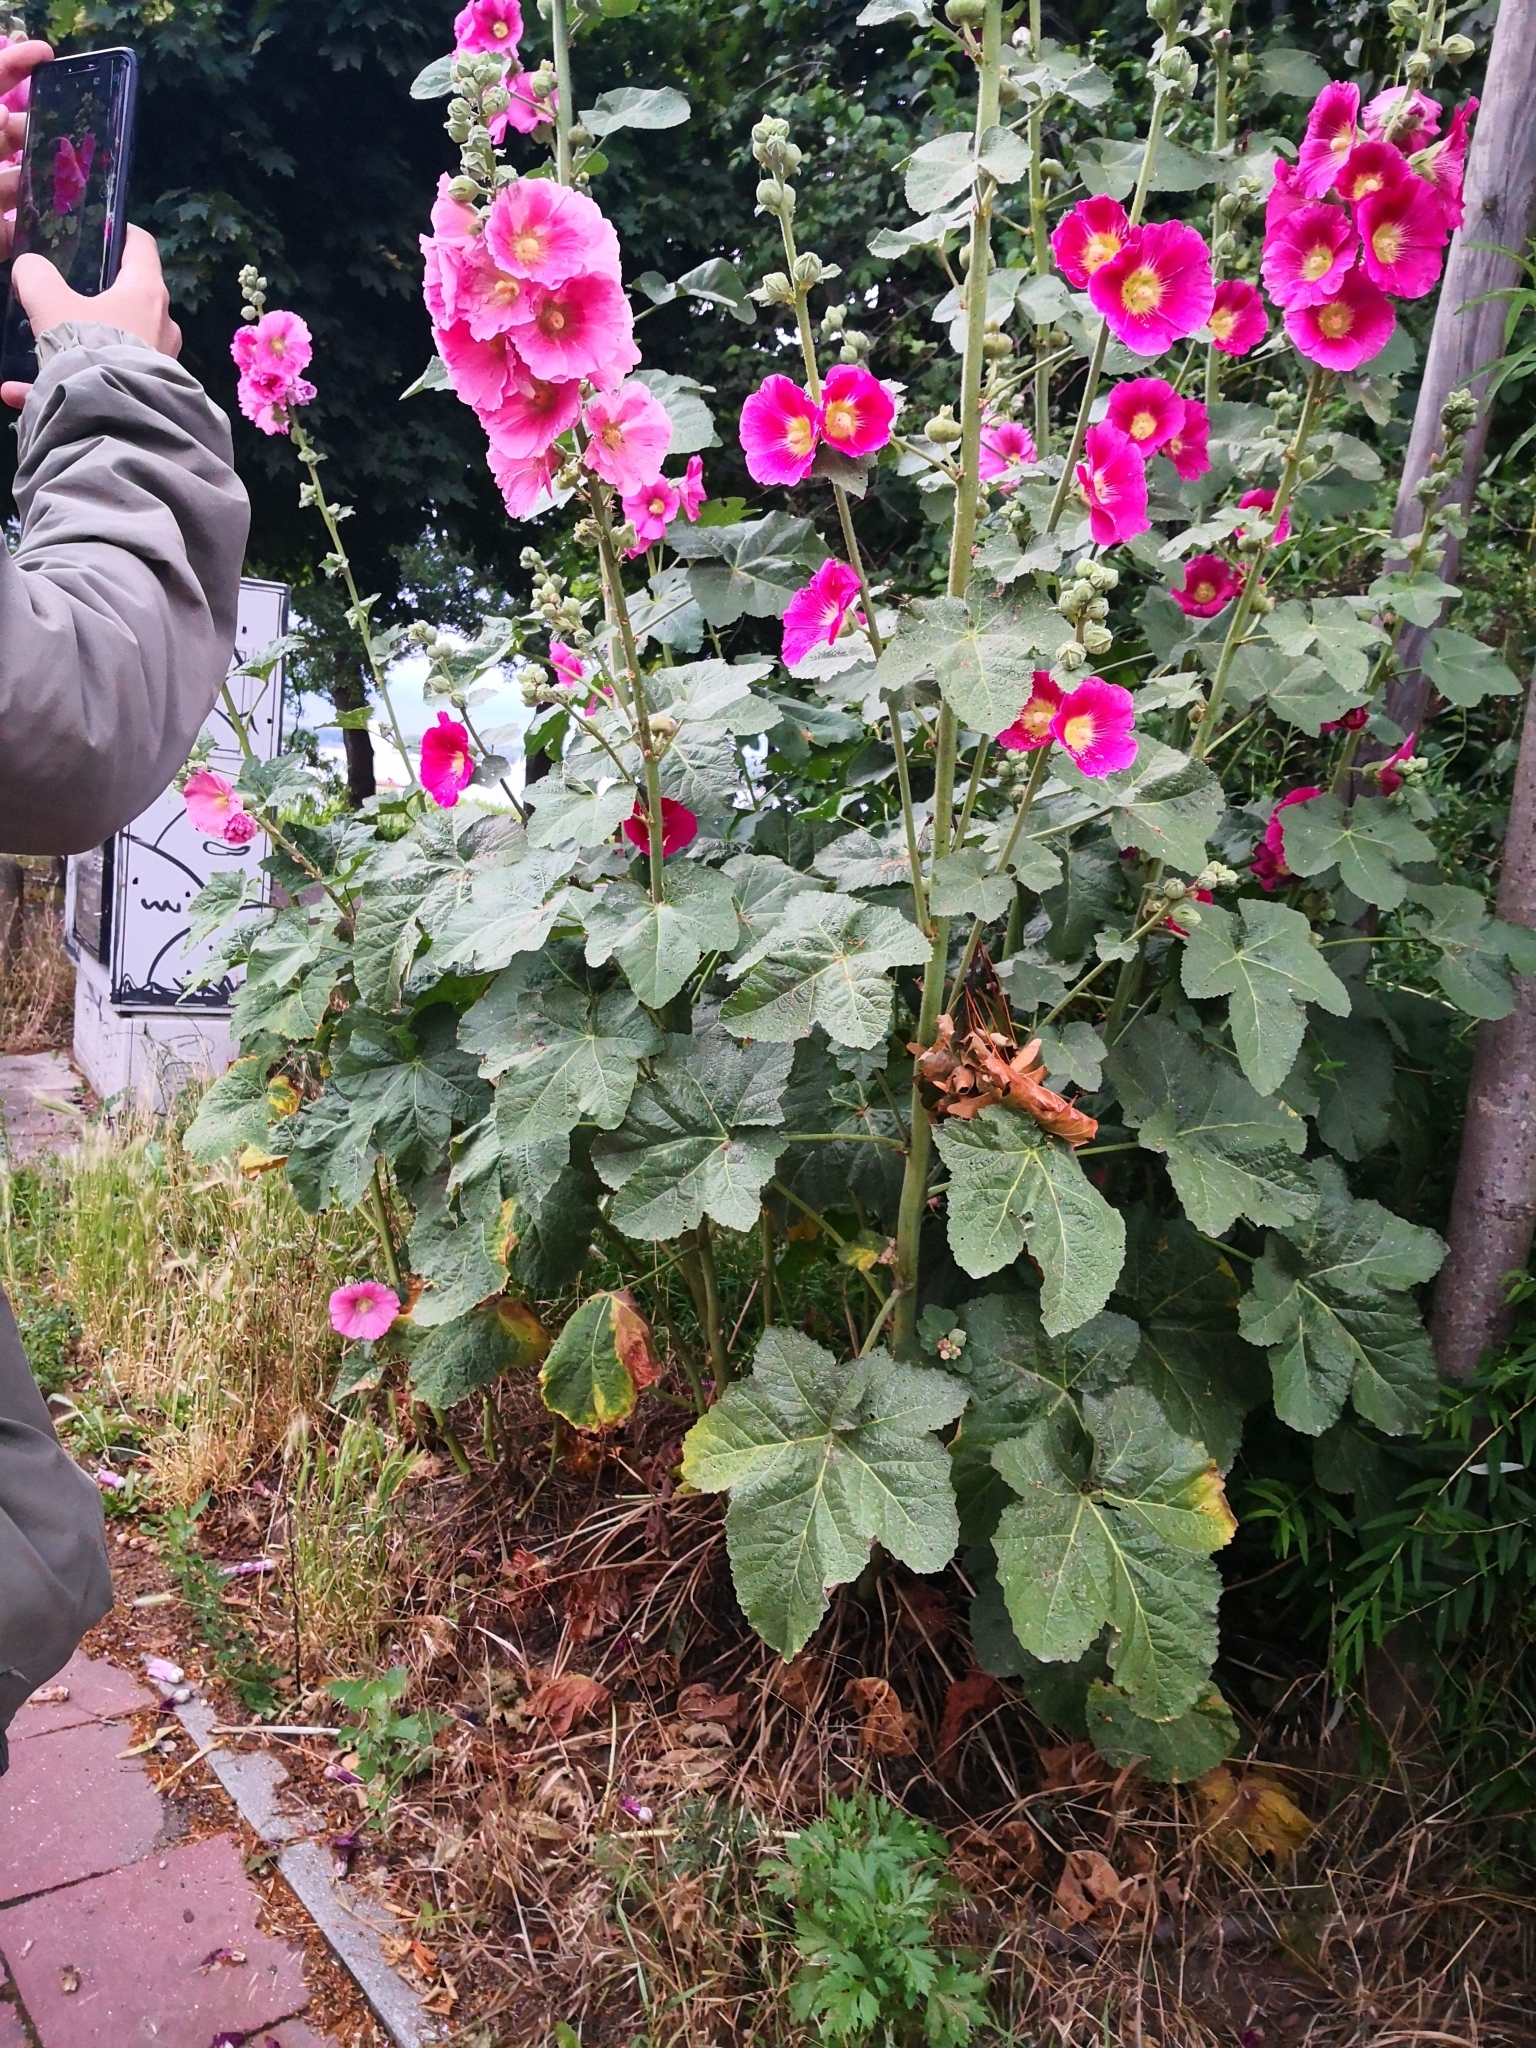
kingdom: Plantae
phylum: Tracheophyta
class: Magnoliopsida
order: Malvales
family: Malvaceae
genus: Alcea
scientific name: Alcea rosea
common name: Hollyhock
